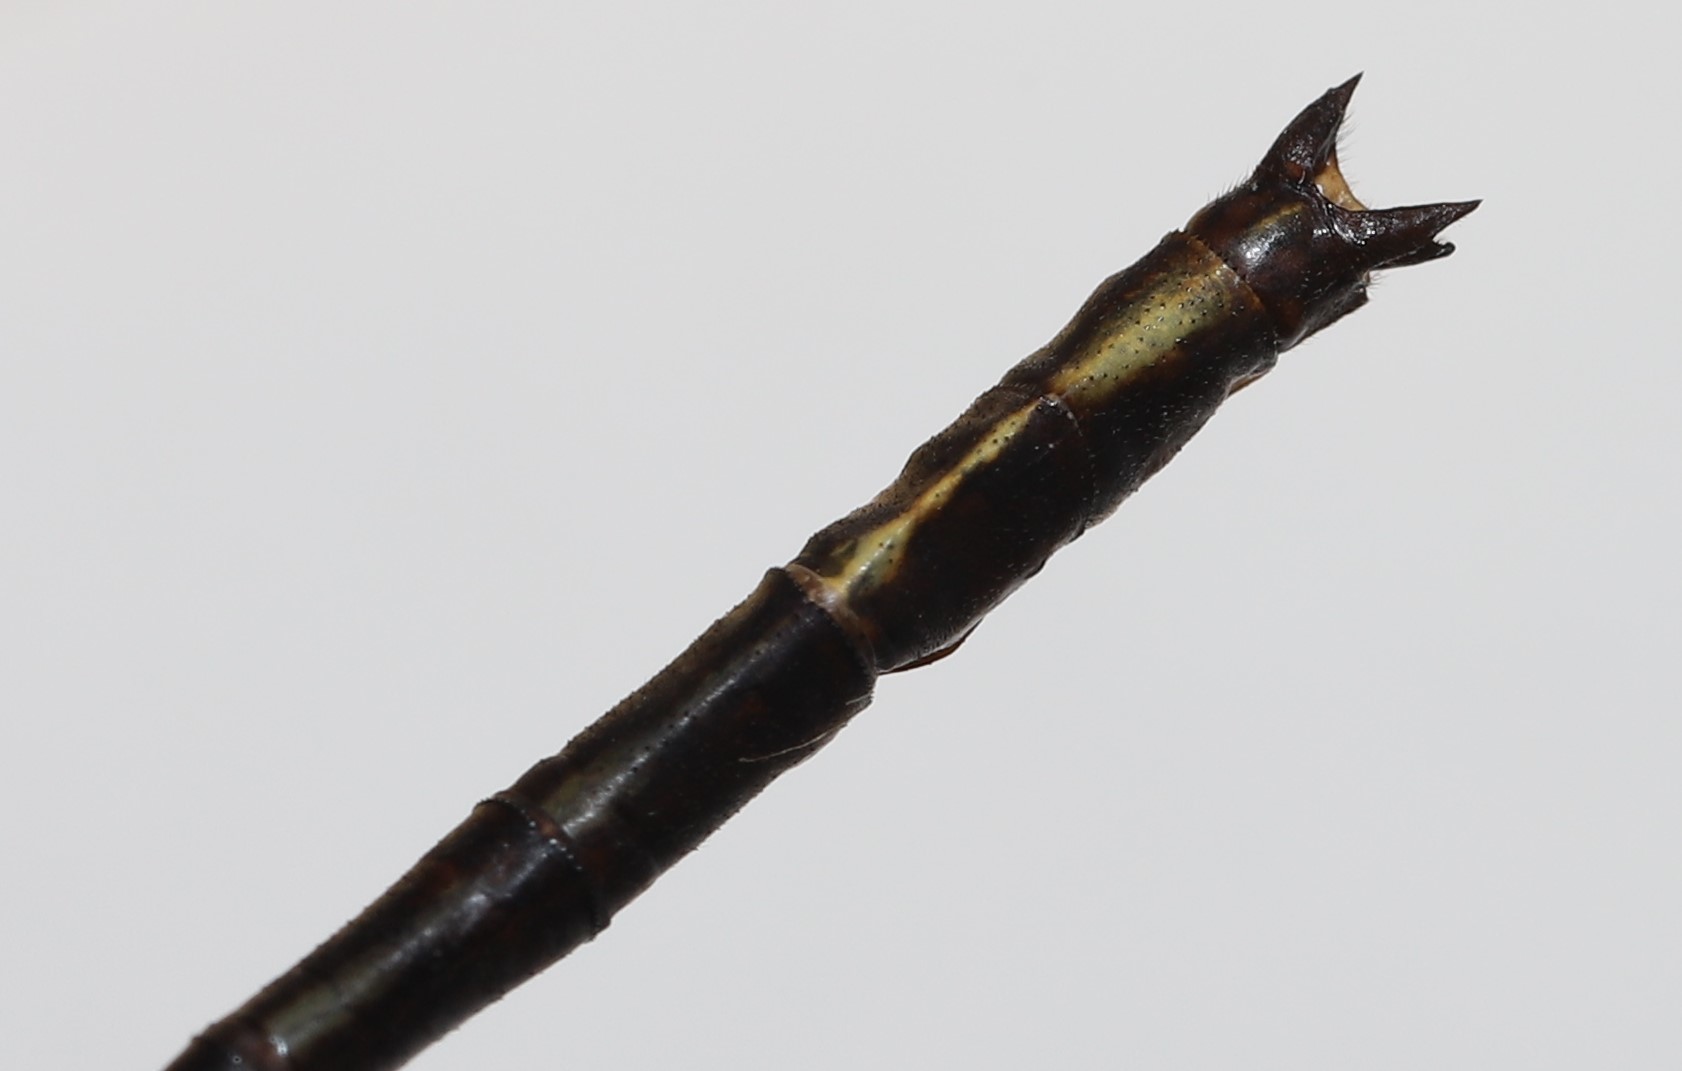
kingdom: Animalia
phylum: Arthropoda
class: Insecta
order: Odonata
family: Gomphidae
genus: Phanogomphus
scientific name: Phanogomphus exilis
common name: Lancet clubtail
